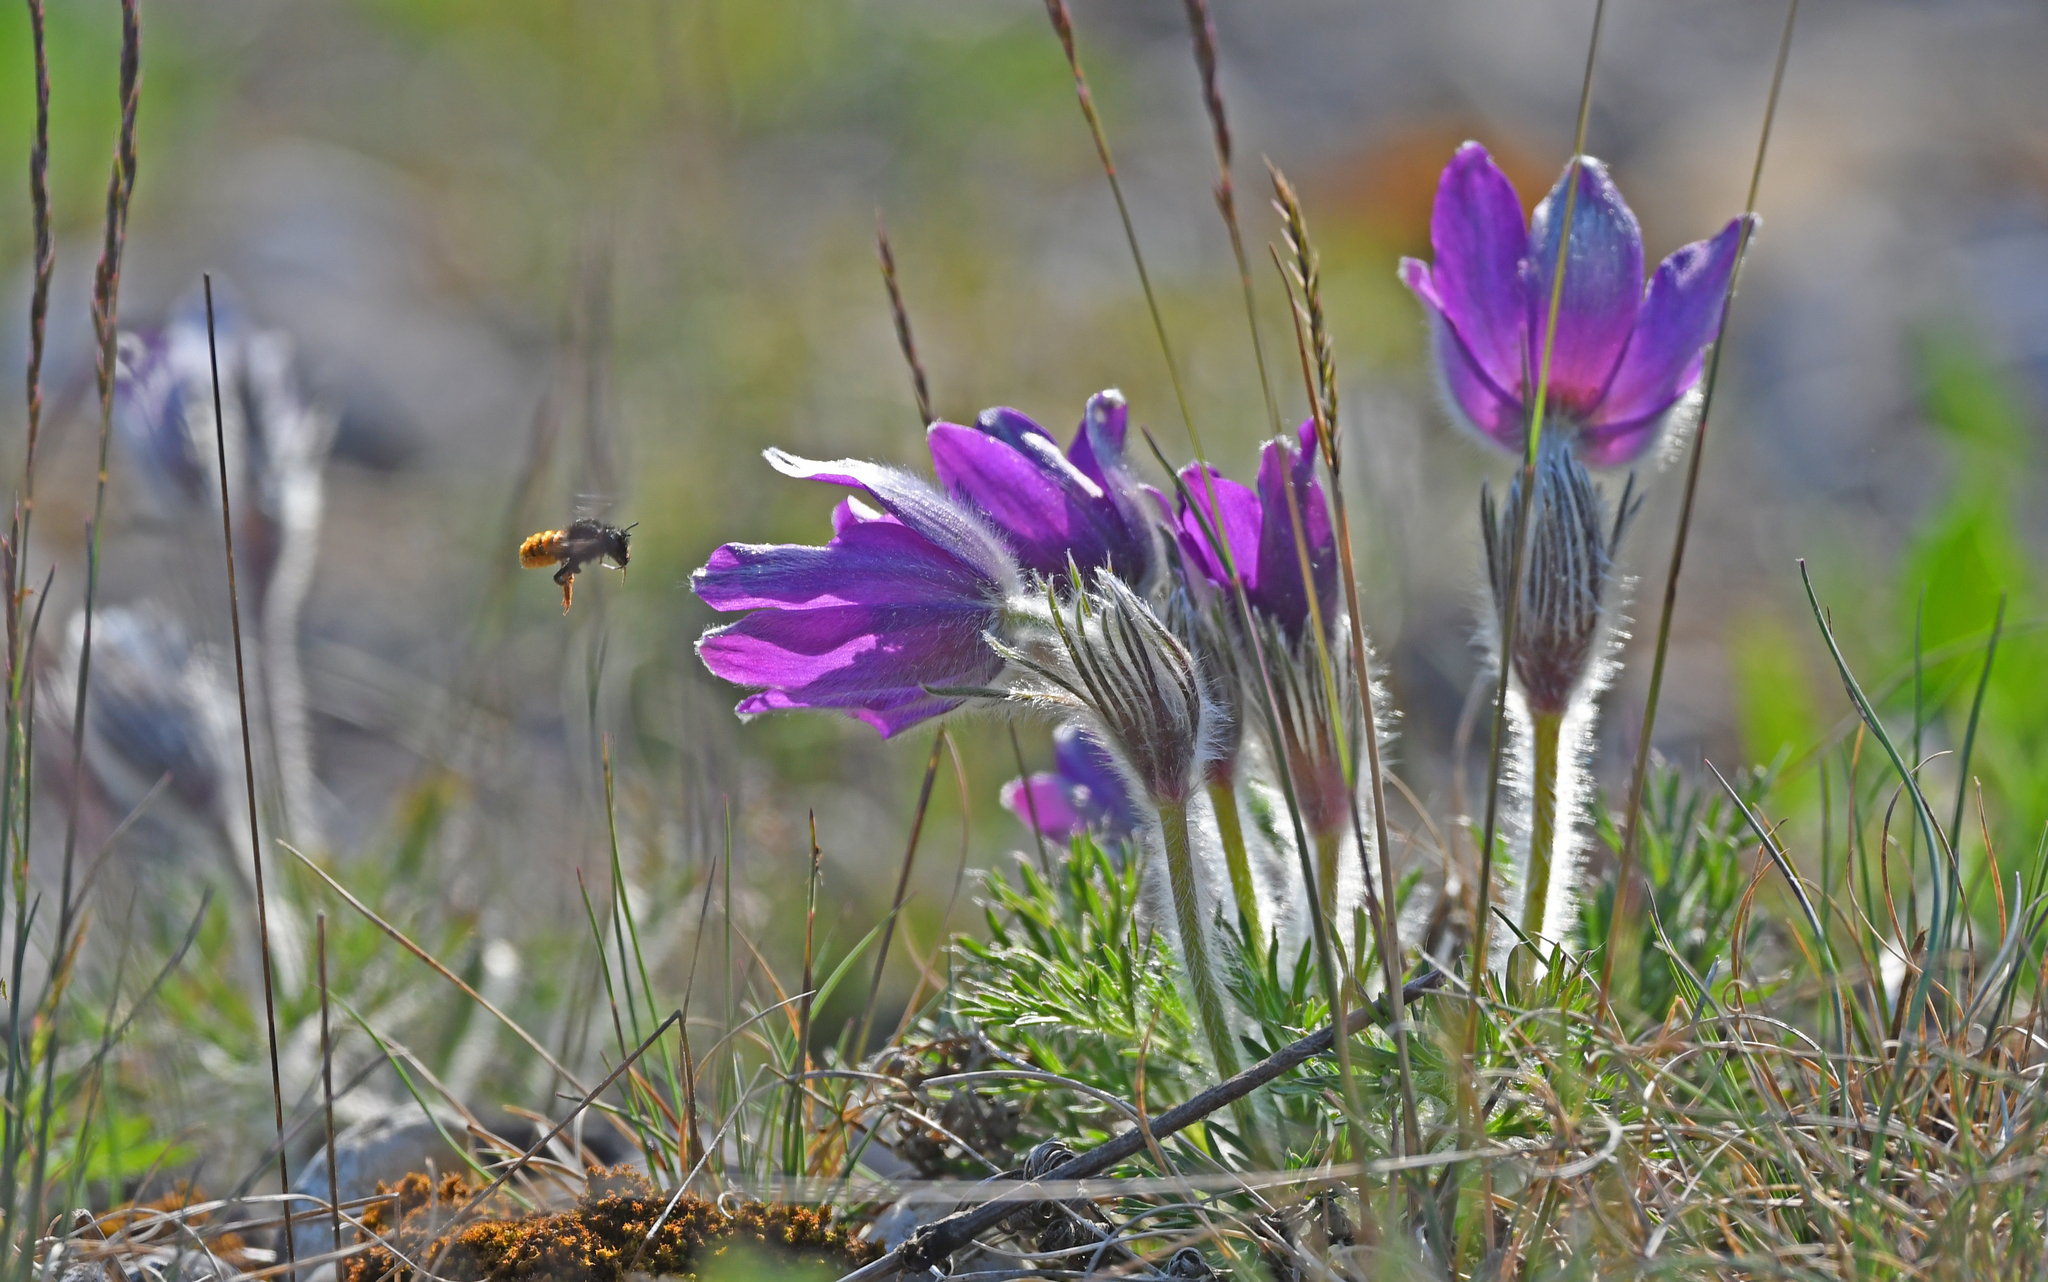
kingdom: Plantae
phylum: Tracheophyta
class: Magnoliopsida
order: Ranunculales
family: Ranunculaceae
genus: Pulsatilla
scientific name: Pulsatilla vulgaris
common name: Pasqueflower
